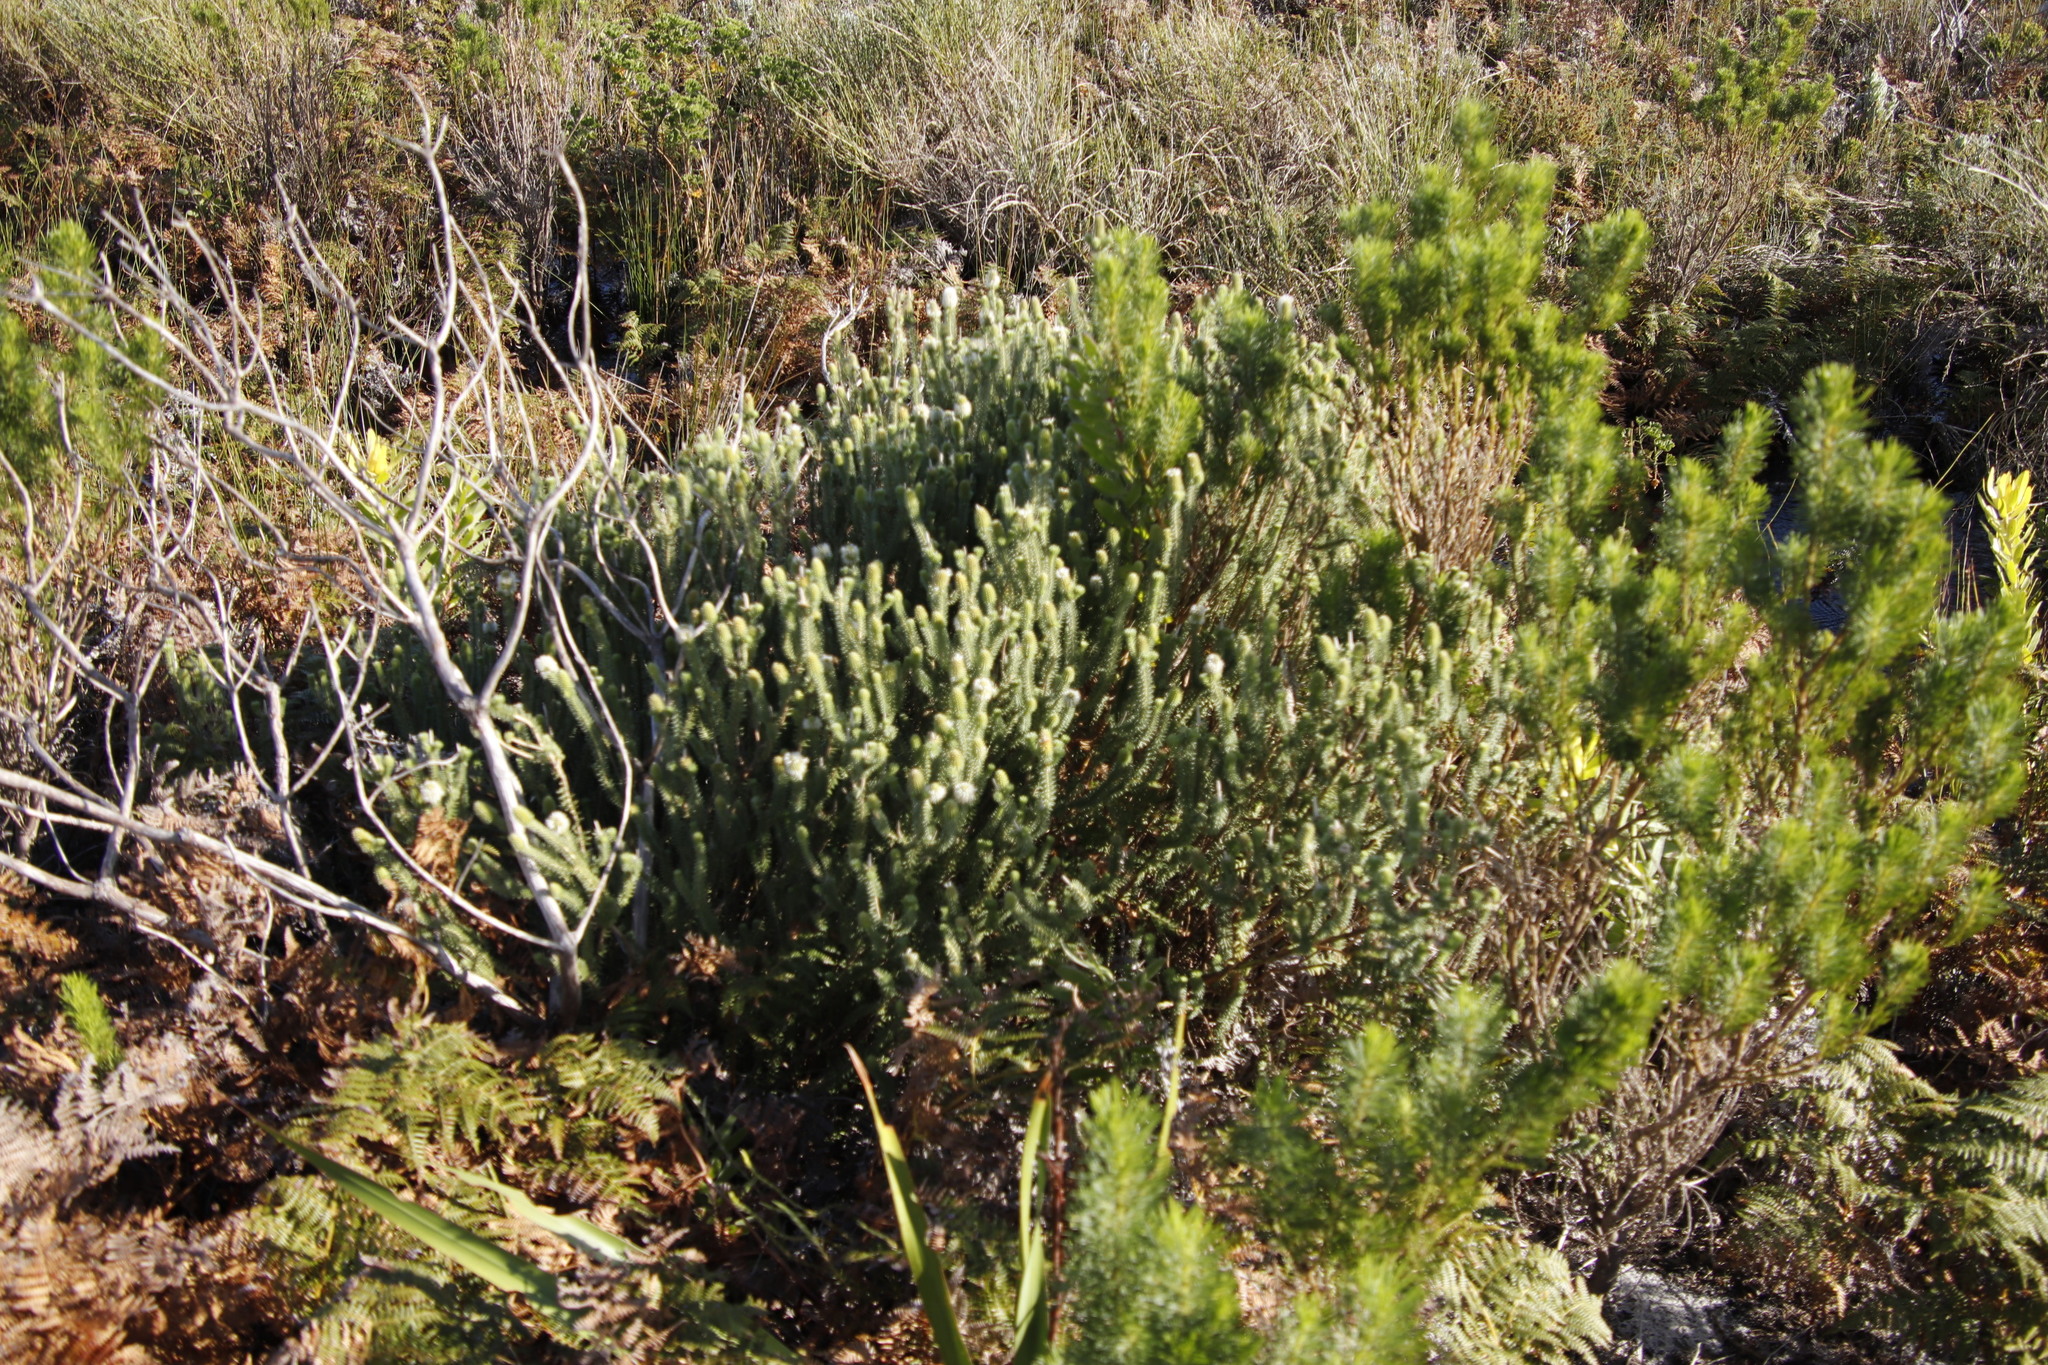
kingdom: Plantae
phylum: Tracheophyta
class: Magnoliopsida
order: Lamiales
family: Stilbaceae
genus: Stilbe
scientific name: Stilbe vestita
